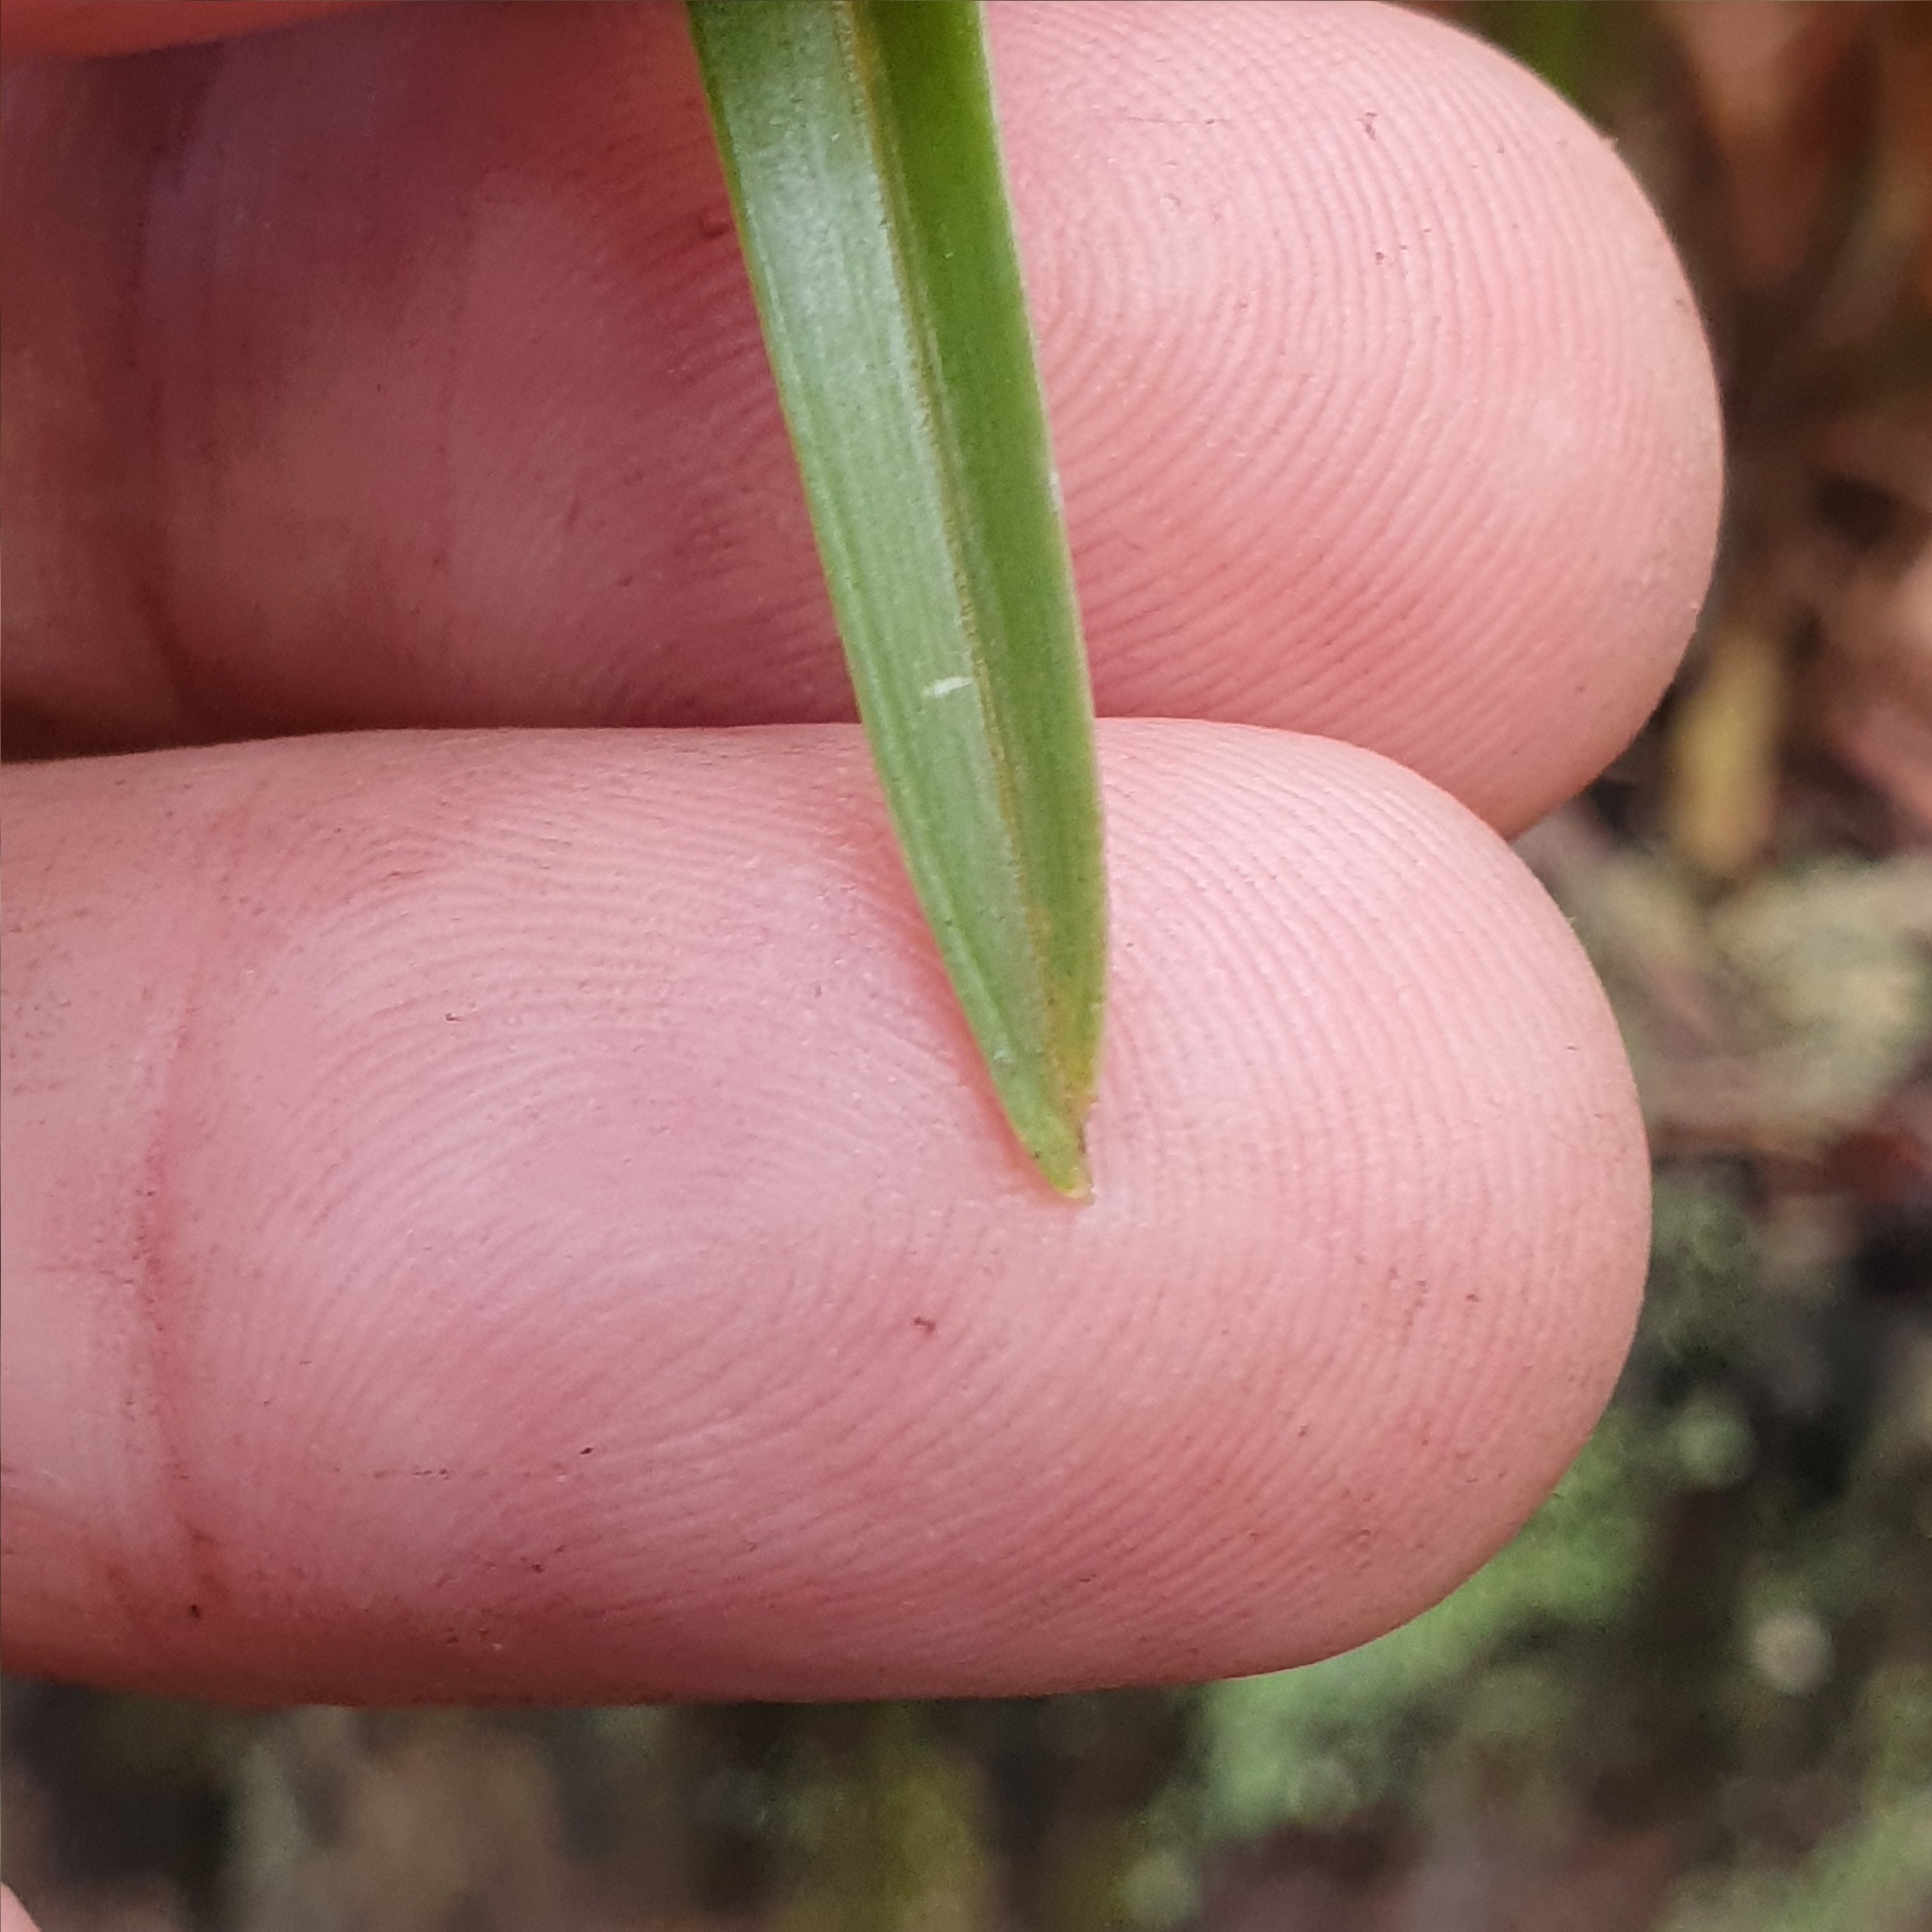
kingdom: Plantae
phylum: Tracheophyta
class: Liliopsida
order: Asparagales
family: Orchidaceae
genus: Cymbidium
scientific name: Cymbidium suave
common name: Snake orchid
